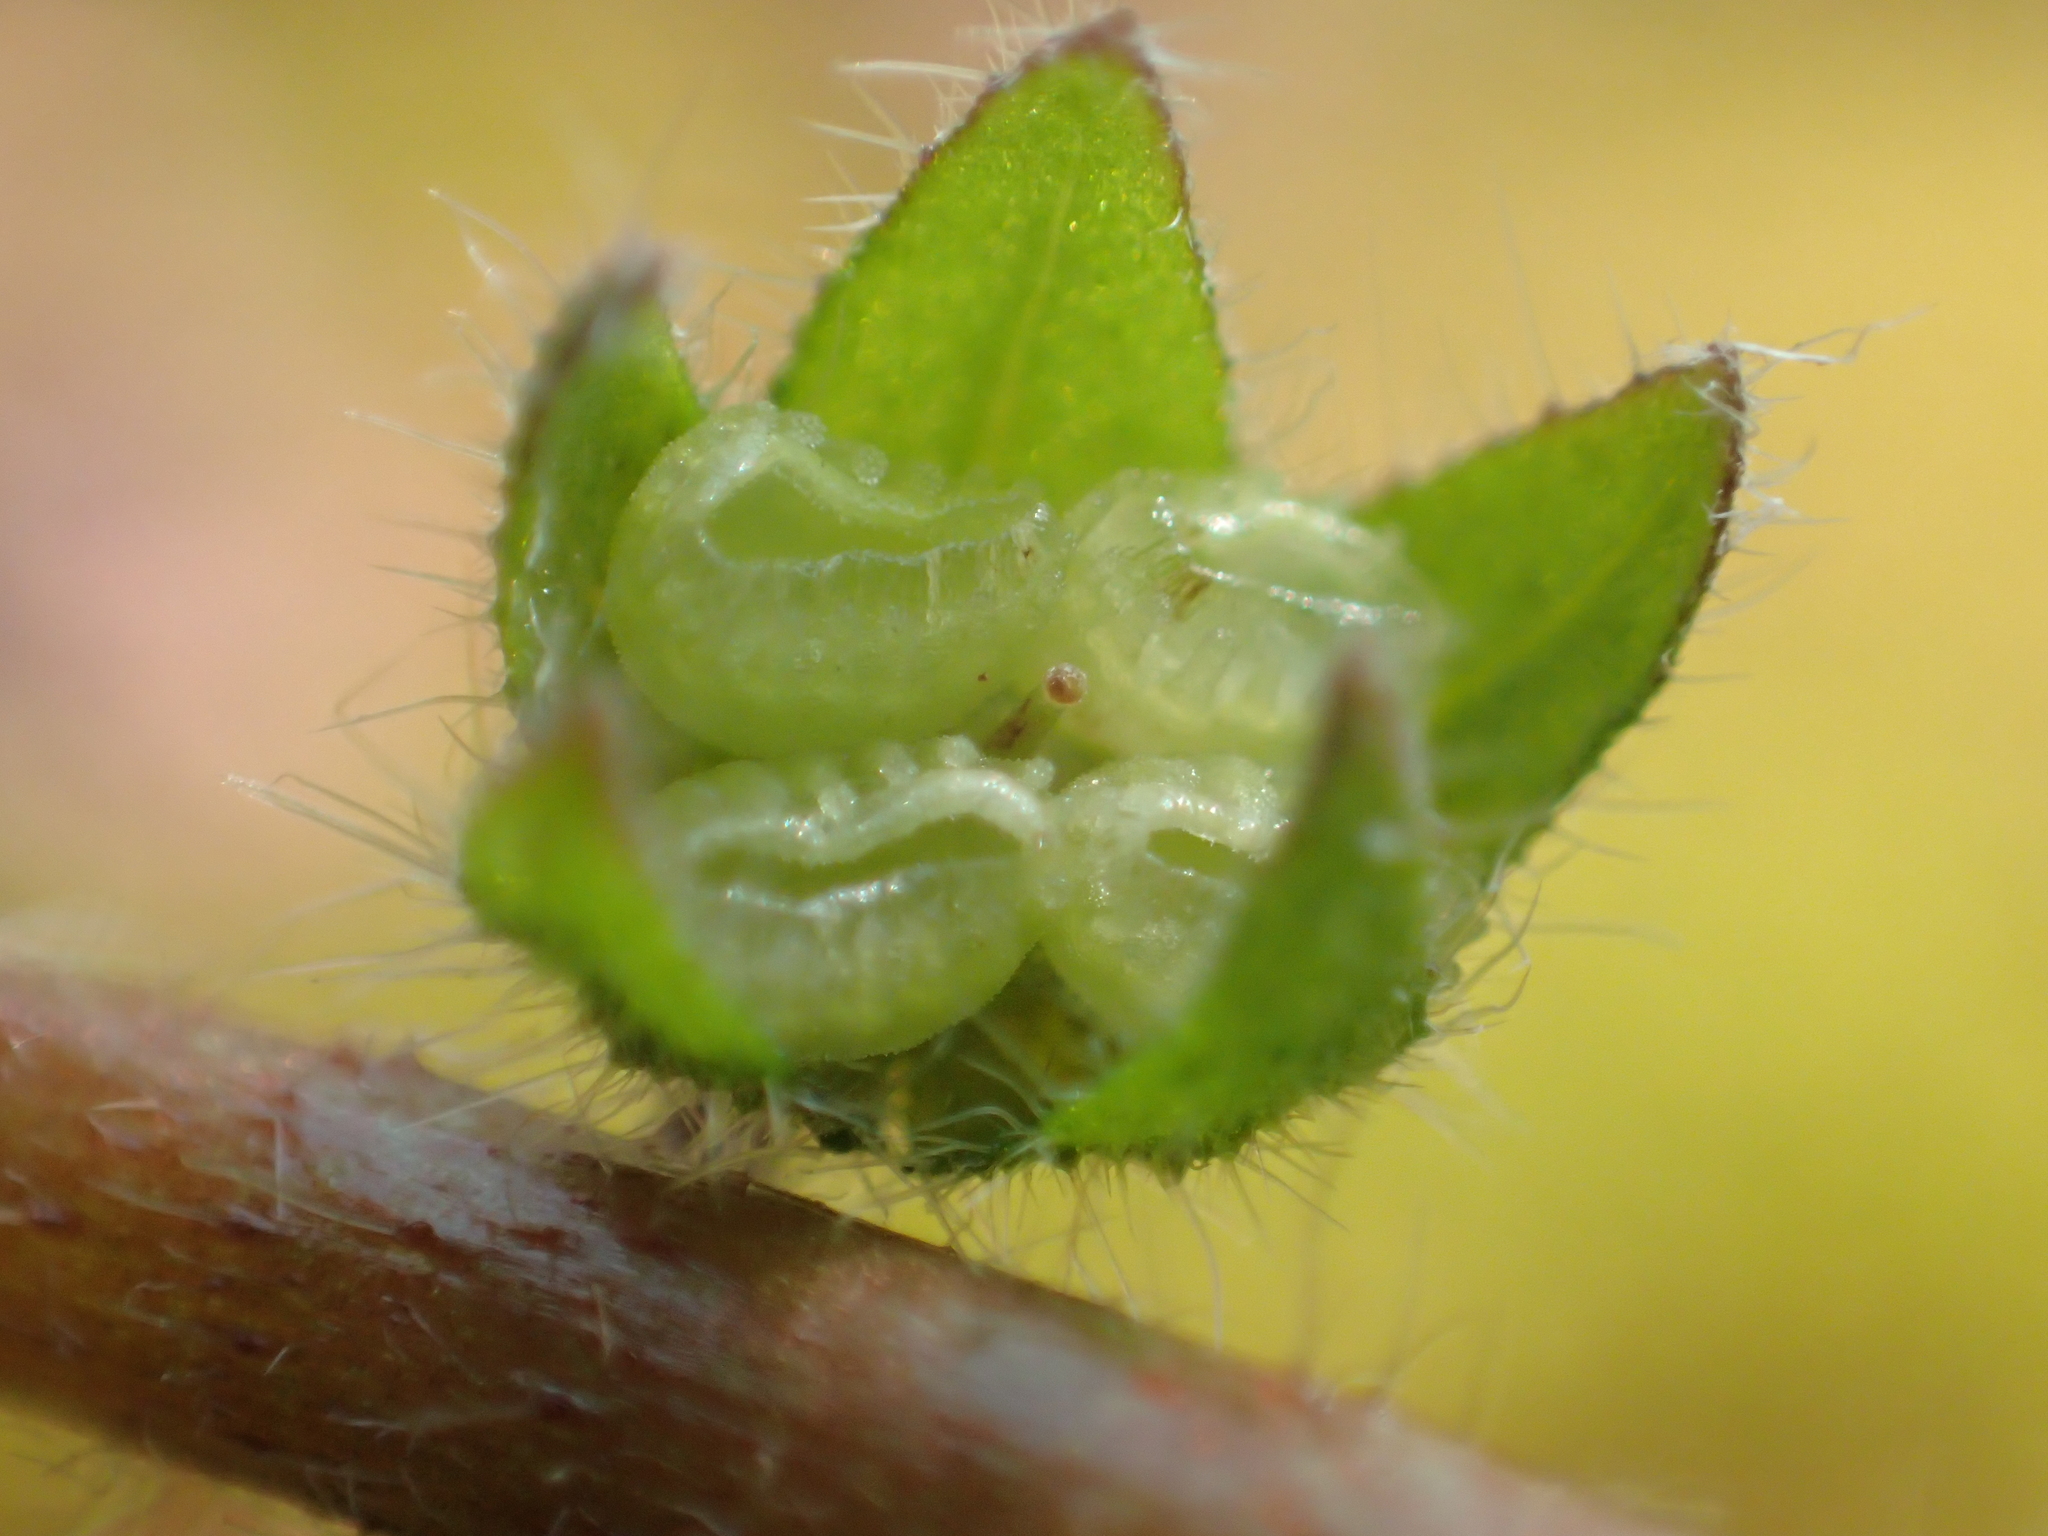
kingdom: Plantae
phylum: Tracheophyta
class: Magnoliopsida
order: Boraginales
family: Boraginaceae
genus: Thyrocarpus
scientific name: Thyrocarpus sampsonii
